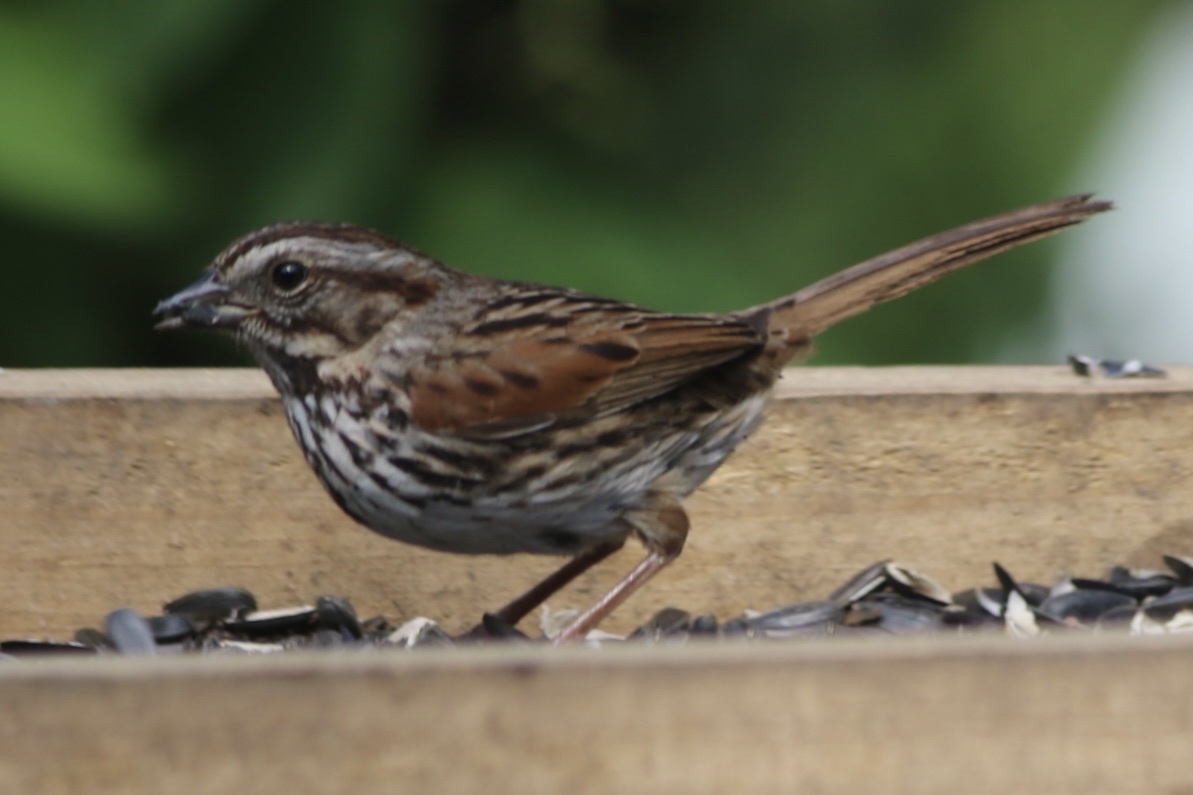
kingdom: Animalia
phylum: Chordata
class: Aves
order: Passeriformes
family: Passerellidae
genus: Melospiza
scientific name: Melospiza melodia
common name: Song sparrow
